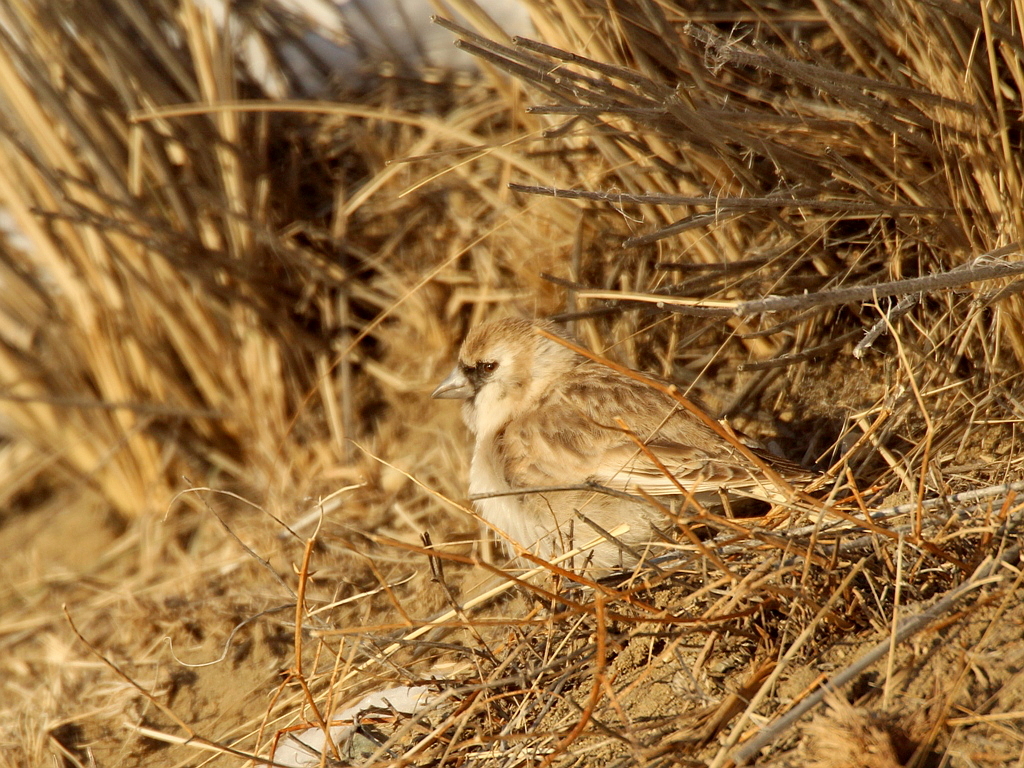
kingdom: Animalia
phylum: Chordata
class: Aves
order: Passeriformes
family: Passeridae
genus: Pyrgilauda
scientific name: Pyrgilauda davidiana
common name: Pere david's snowfinch
